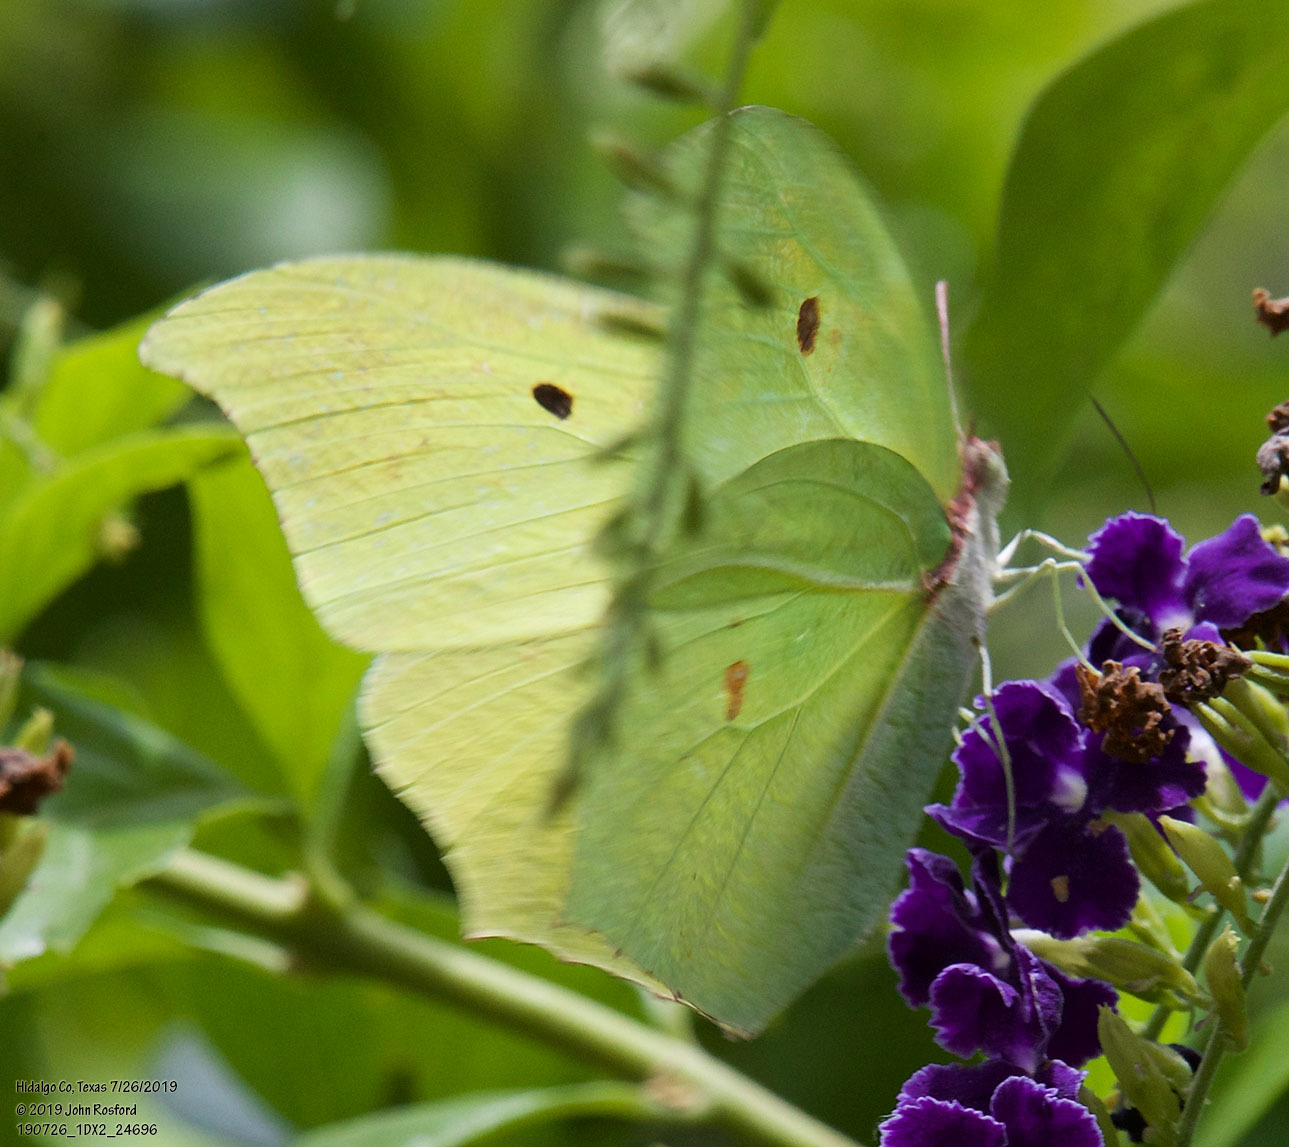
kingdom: Animalia
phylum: Arthropoda
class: Insecta
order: Lepidoptera
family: Pieridae
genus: Anteos
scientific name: Anteos maerula
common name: Angled sulphur
